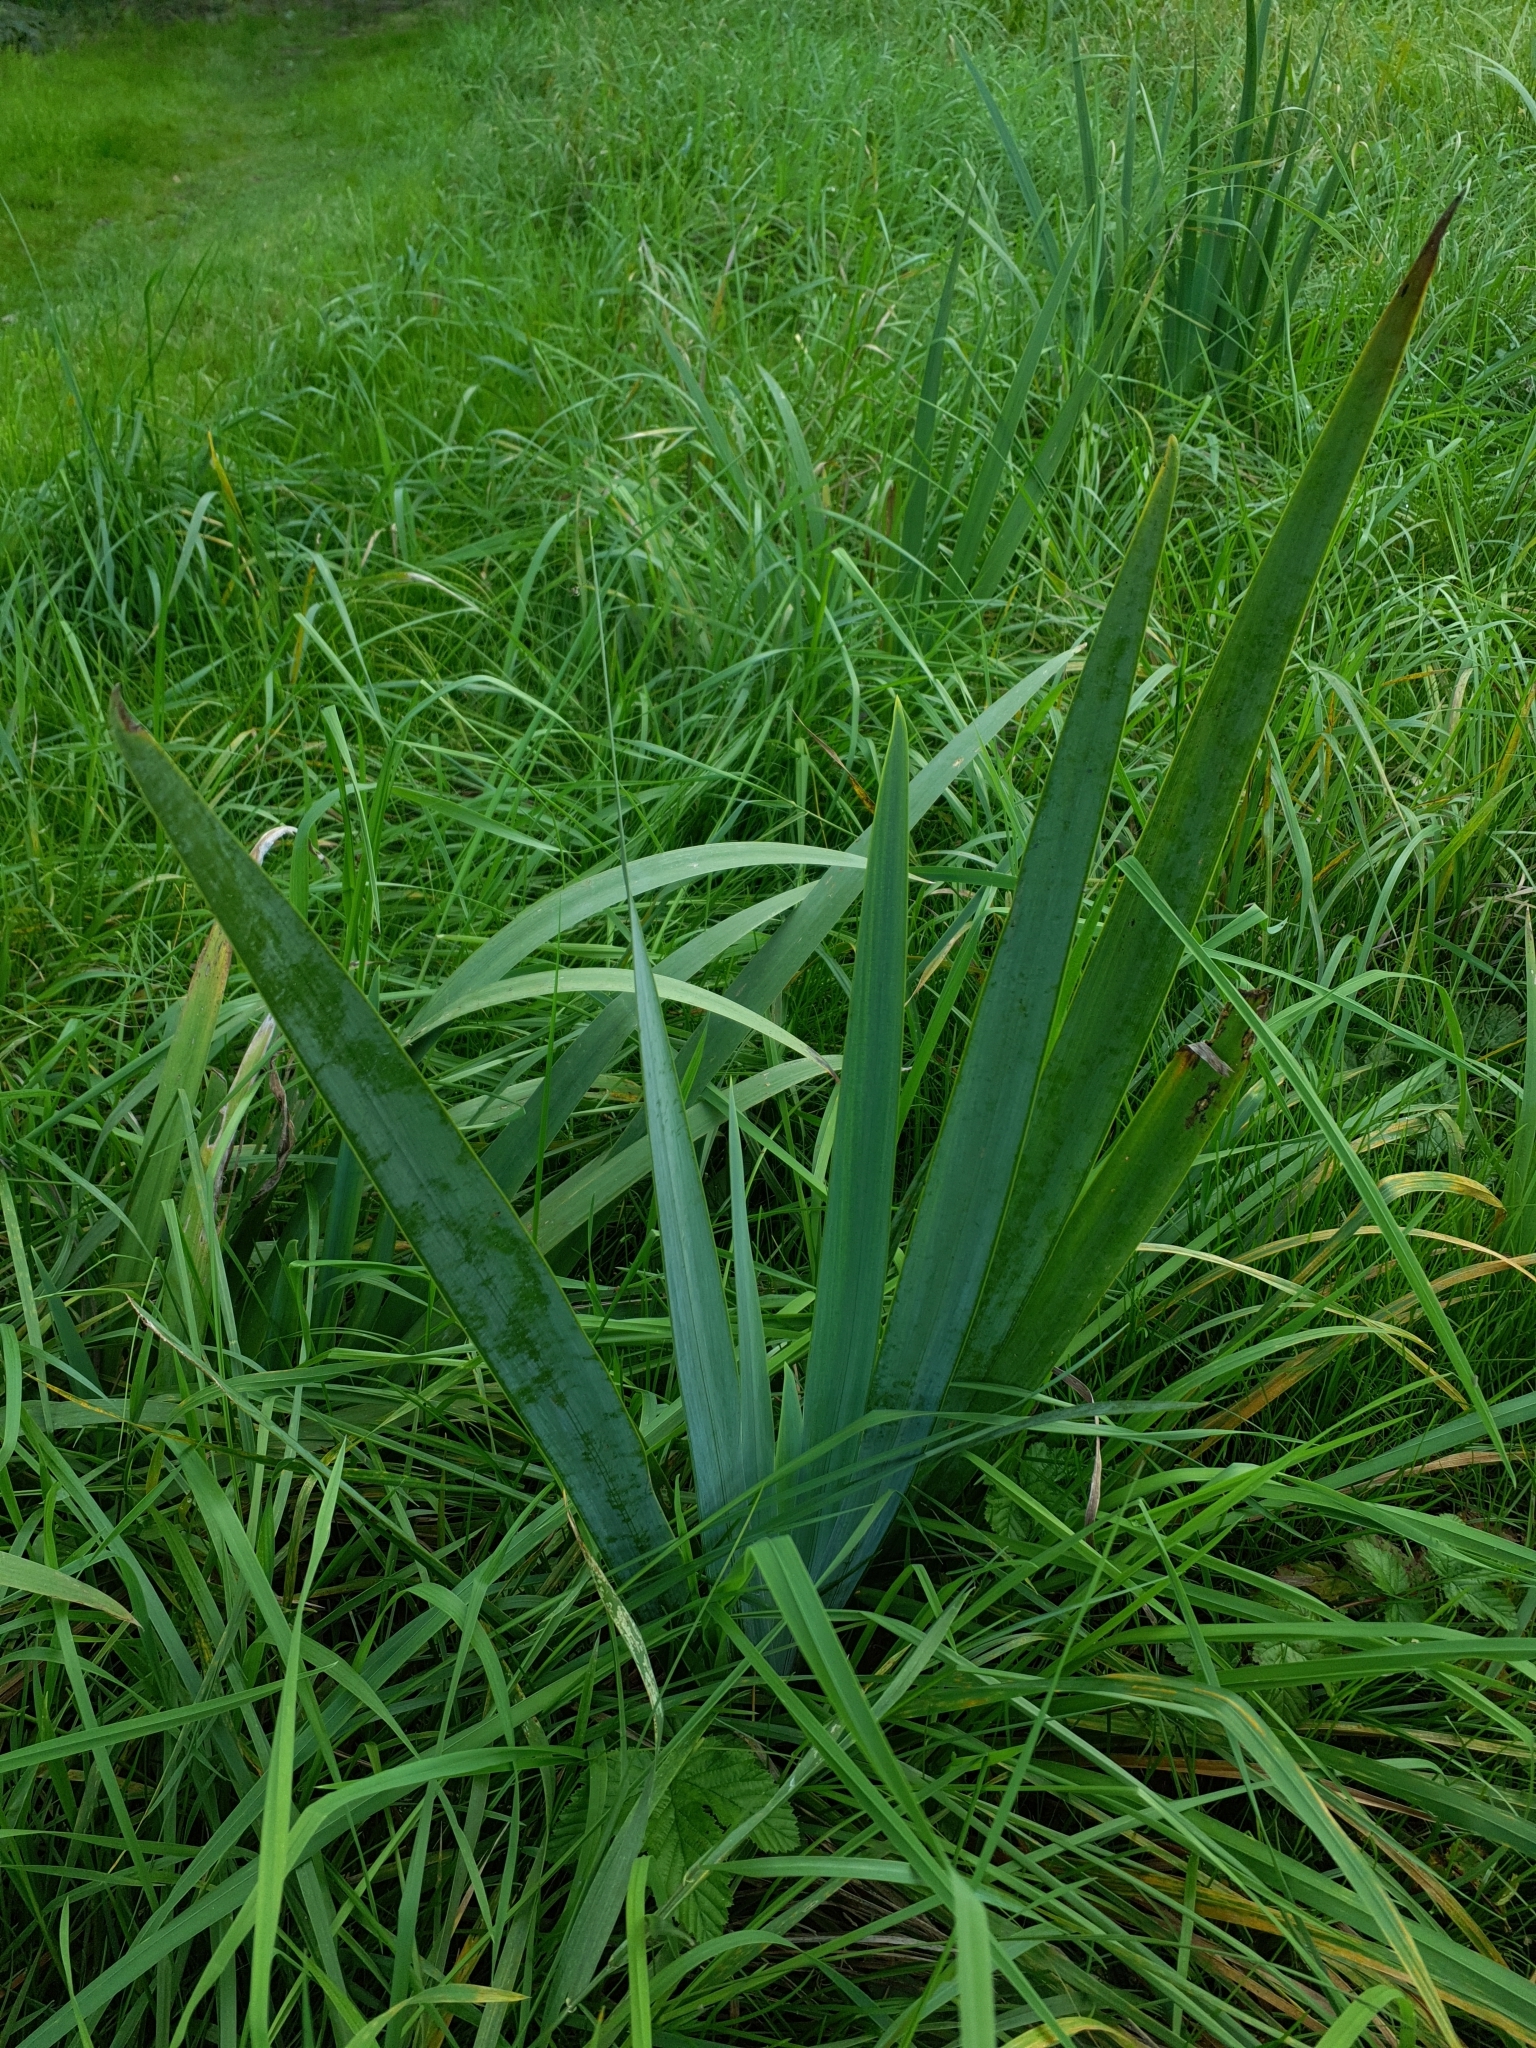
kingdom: Plantae
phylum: Tracheophyta
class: Liliopsida
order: Asparagales
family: Iridaceae
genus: Iris
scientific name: Iris pseudacorus
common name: Yellow flag
